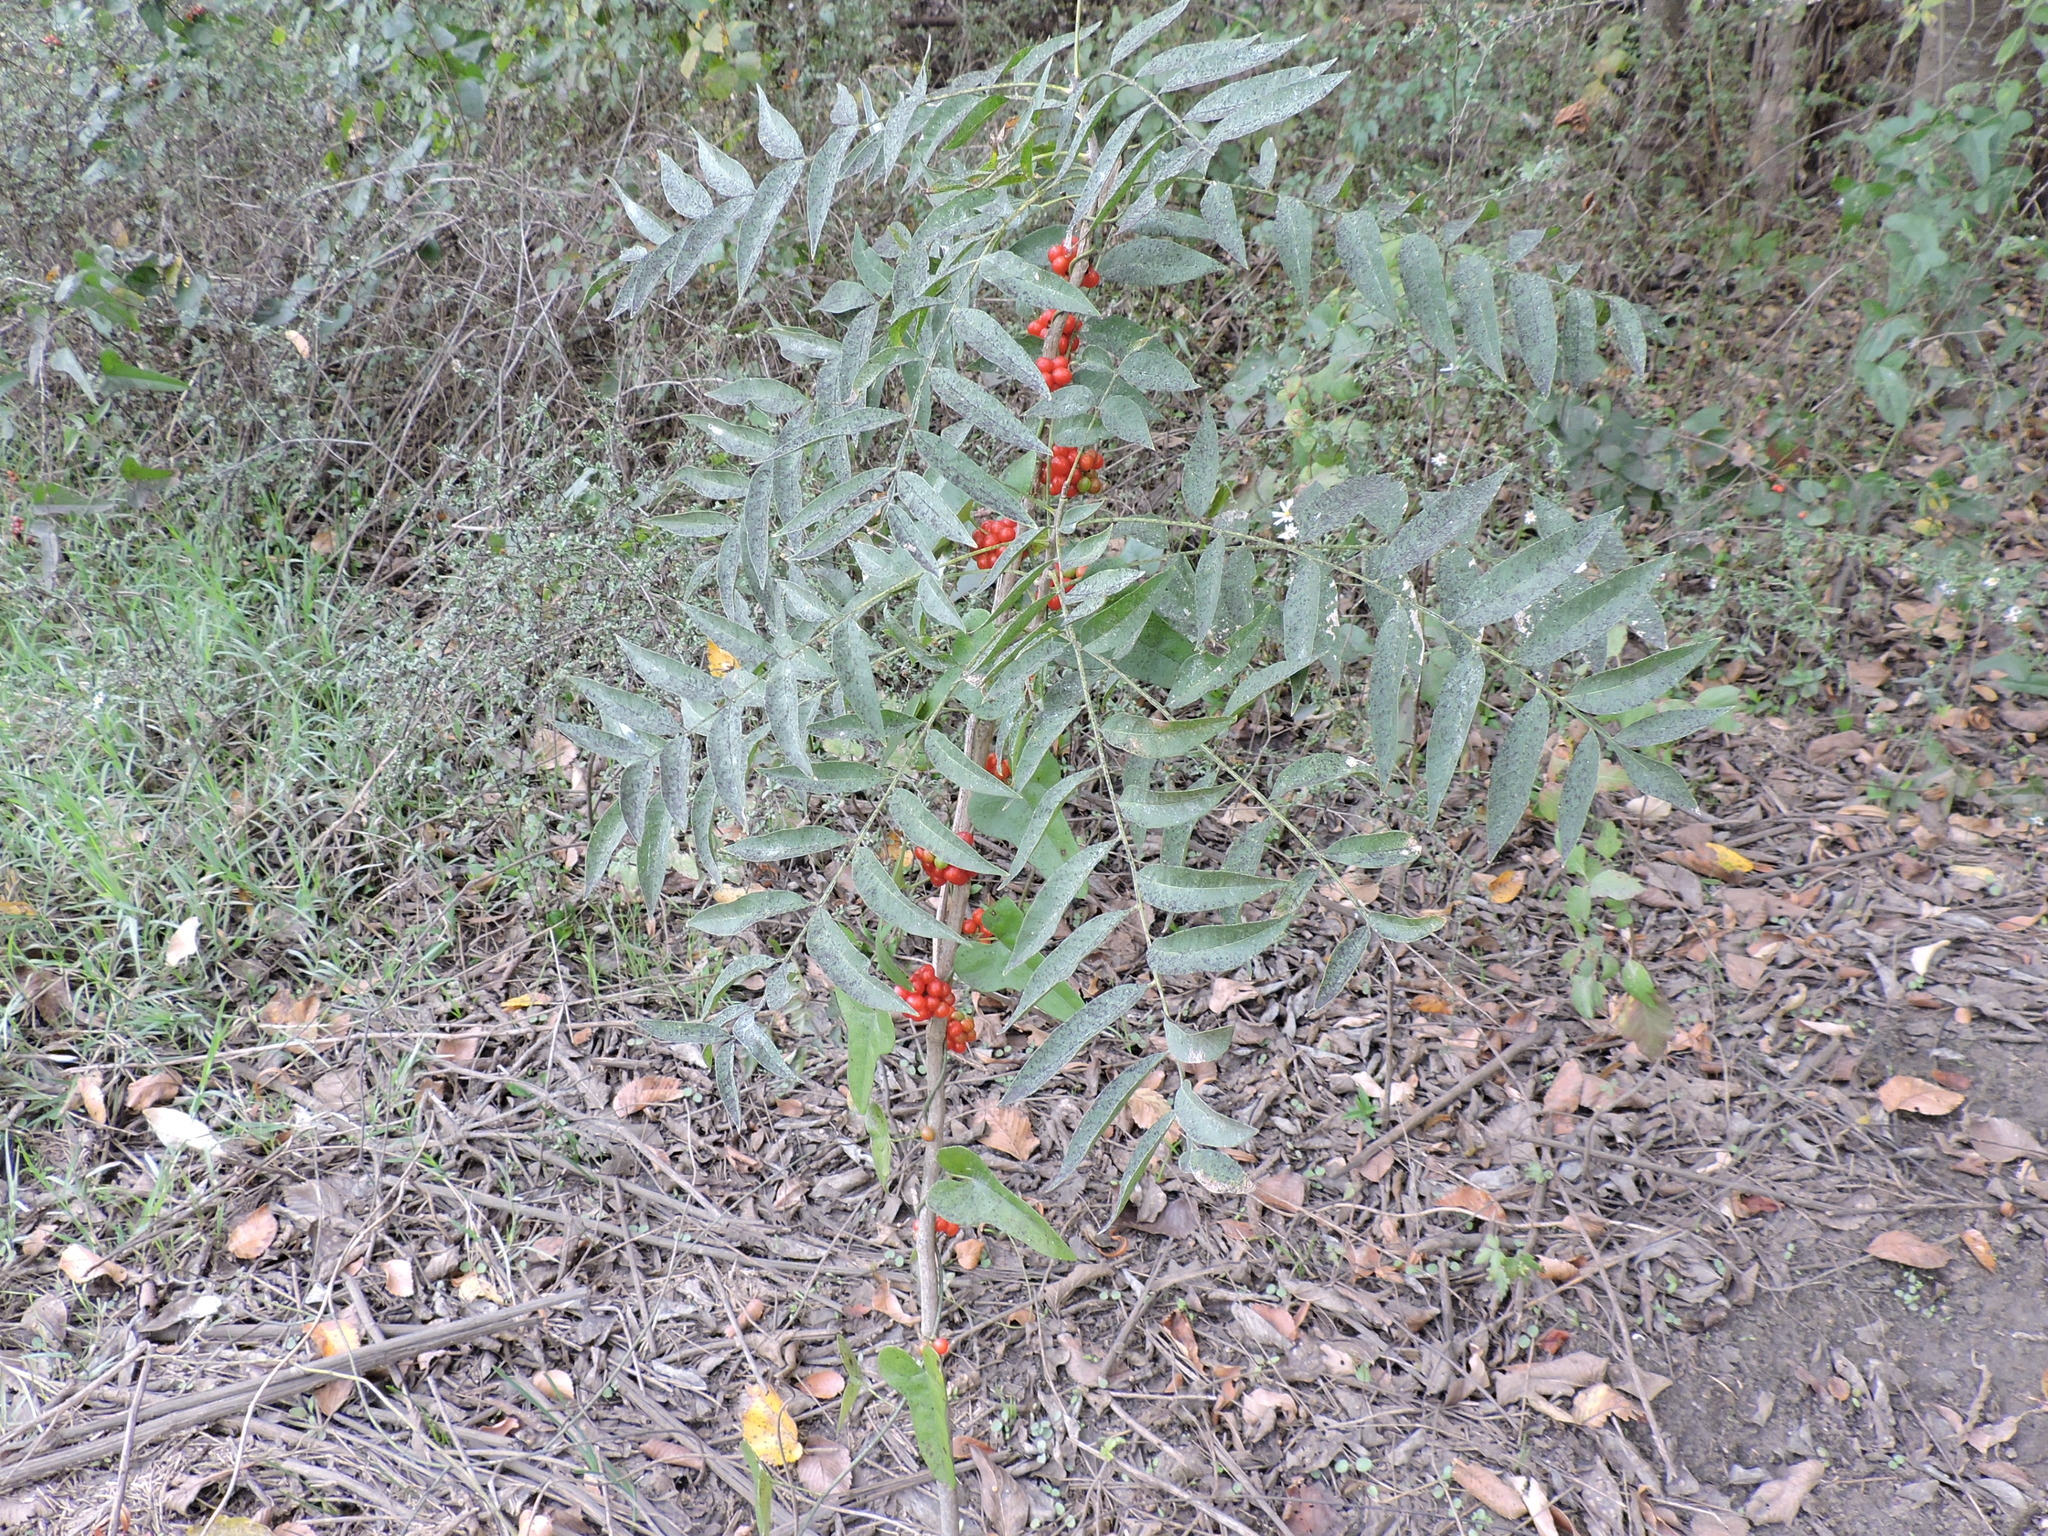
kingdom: Plantae
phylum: Tracheophyta
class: Magnoliopsida
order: Ranunculales
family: Menispermaceae
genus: Cocculus
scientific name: Cocculus carolinus
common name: Carolina moonseed
